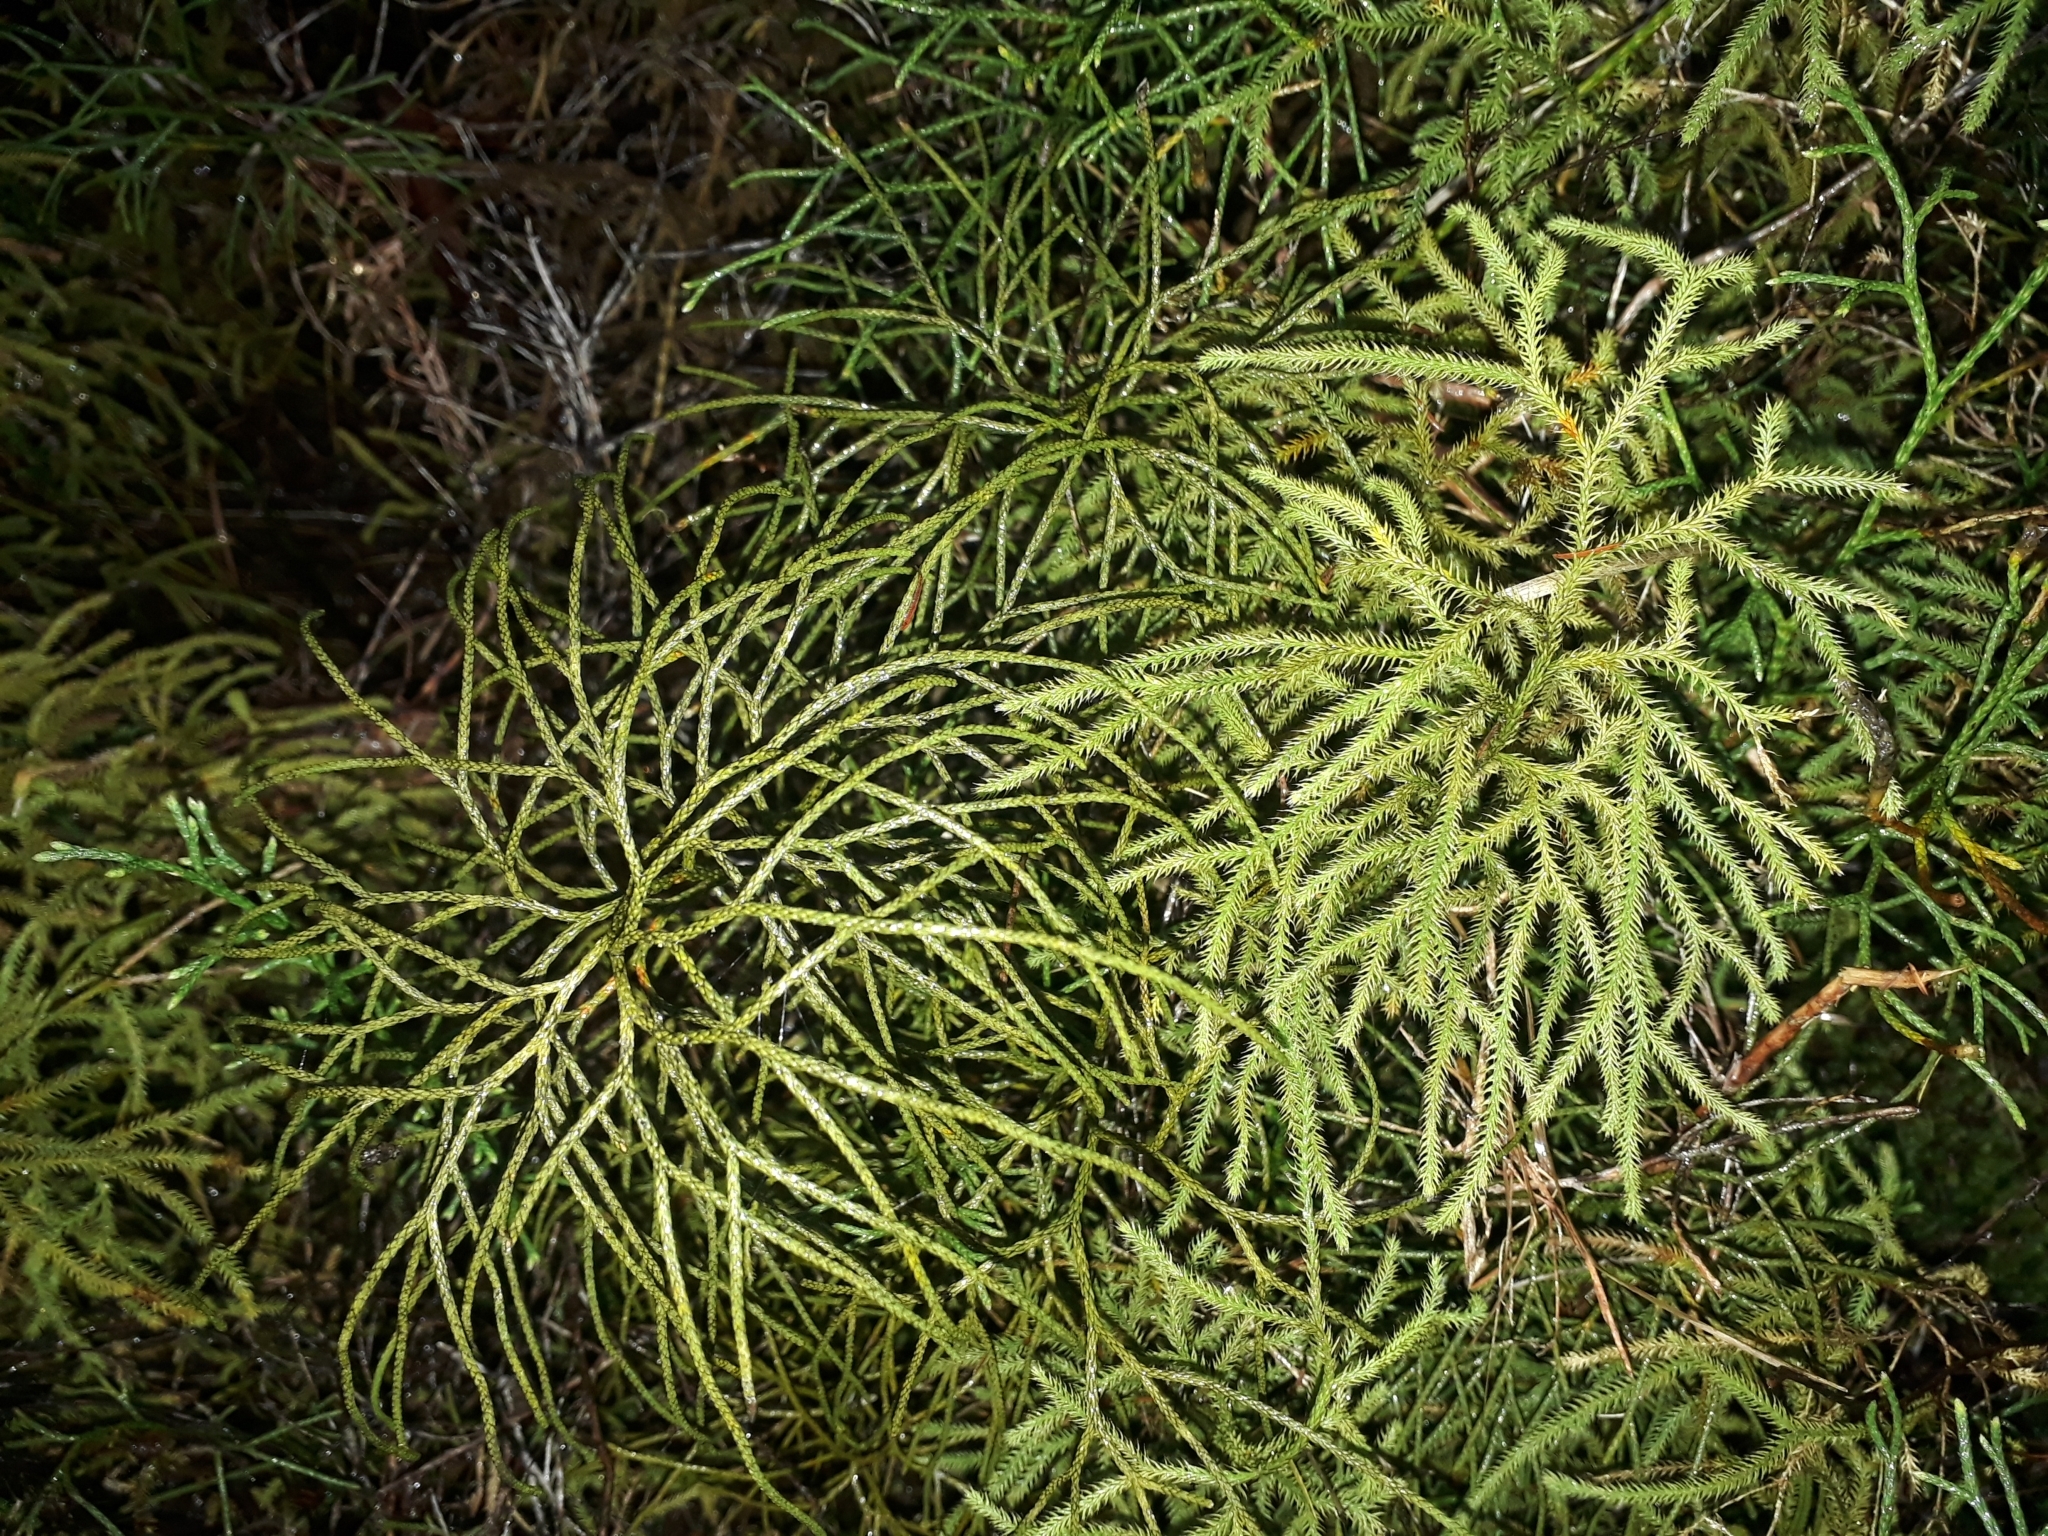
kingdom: Plantae
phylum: Tracheophyta
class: Lycopodiopsida
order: Lycopodiales
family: Lycopodiaceae
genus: Pseudolycopodium
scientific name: Pseudolycopodium densum
